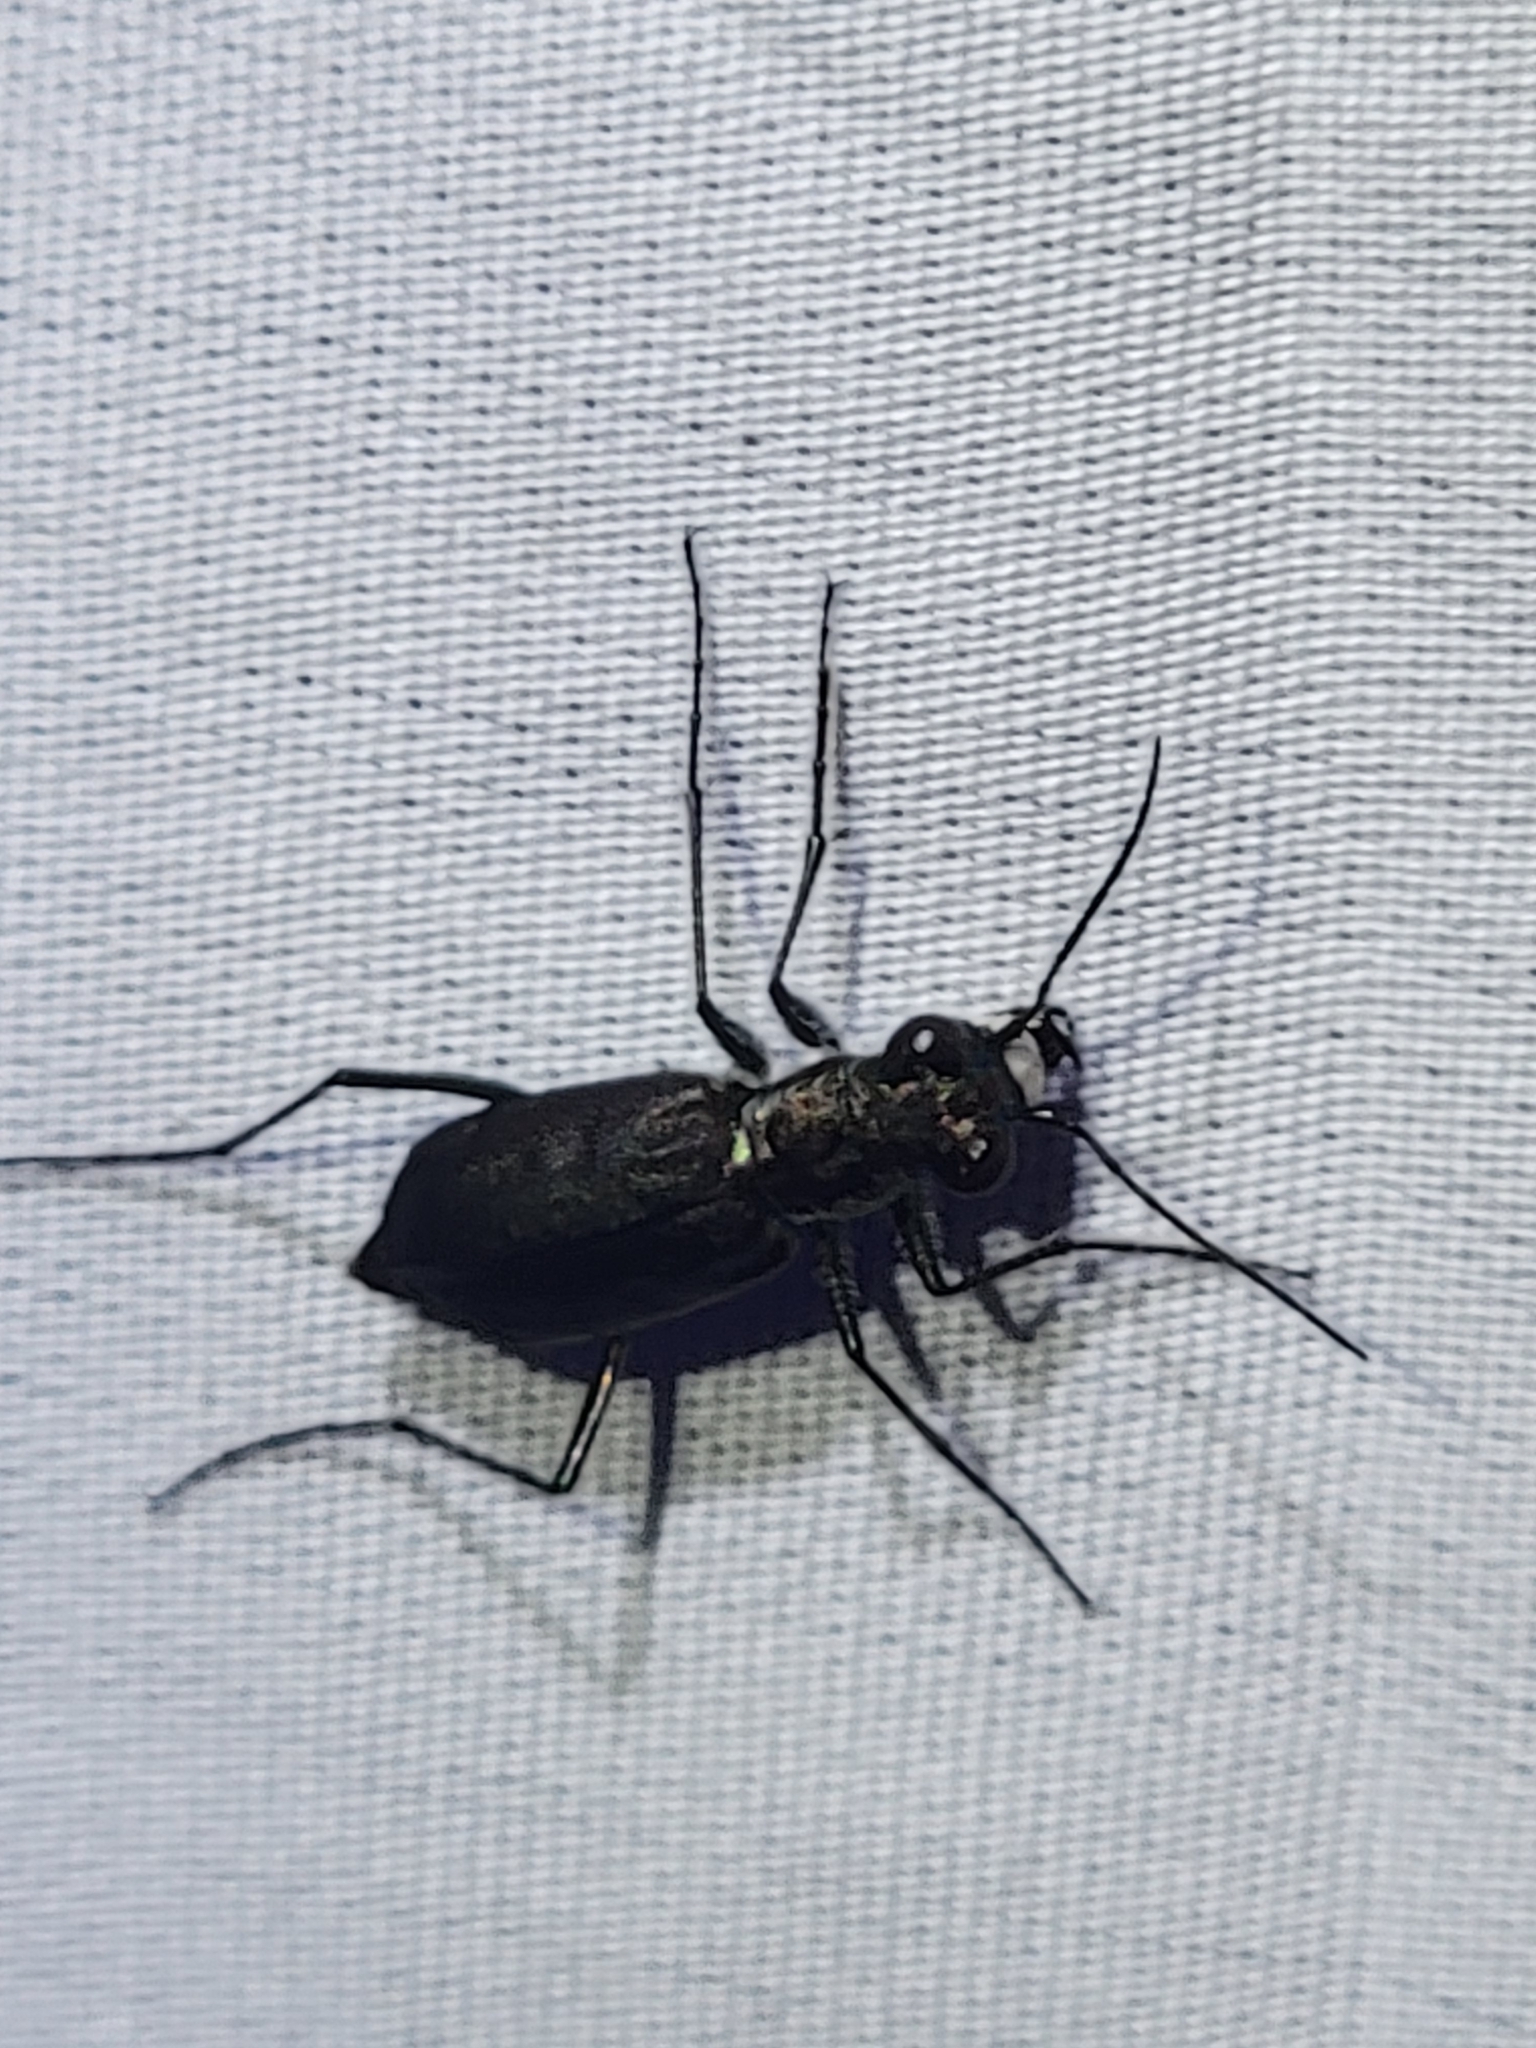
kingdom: Animalia
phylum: Arthropoda
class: Insecta
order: Coleoptera
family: Carabidae
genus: Cicindela
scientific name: Cicindela punctulata
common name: Punctured tiger beetle
